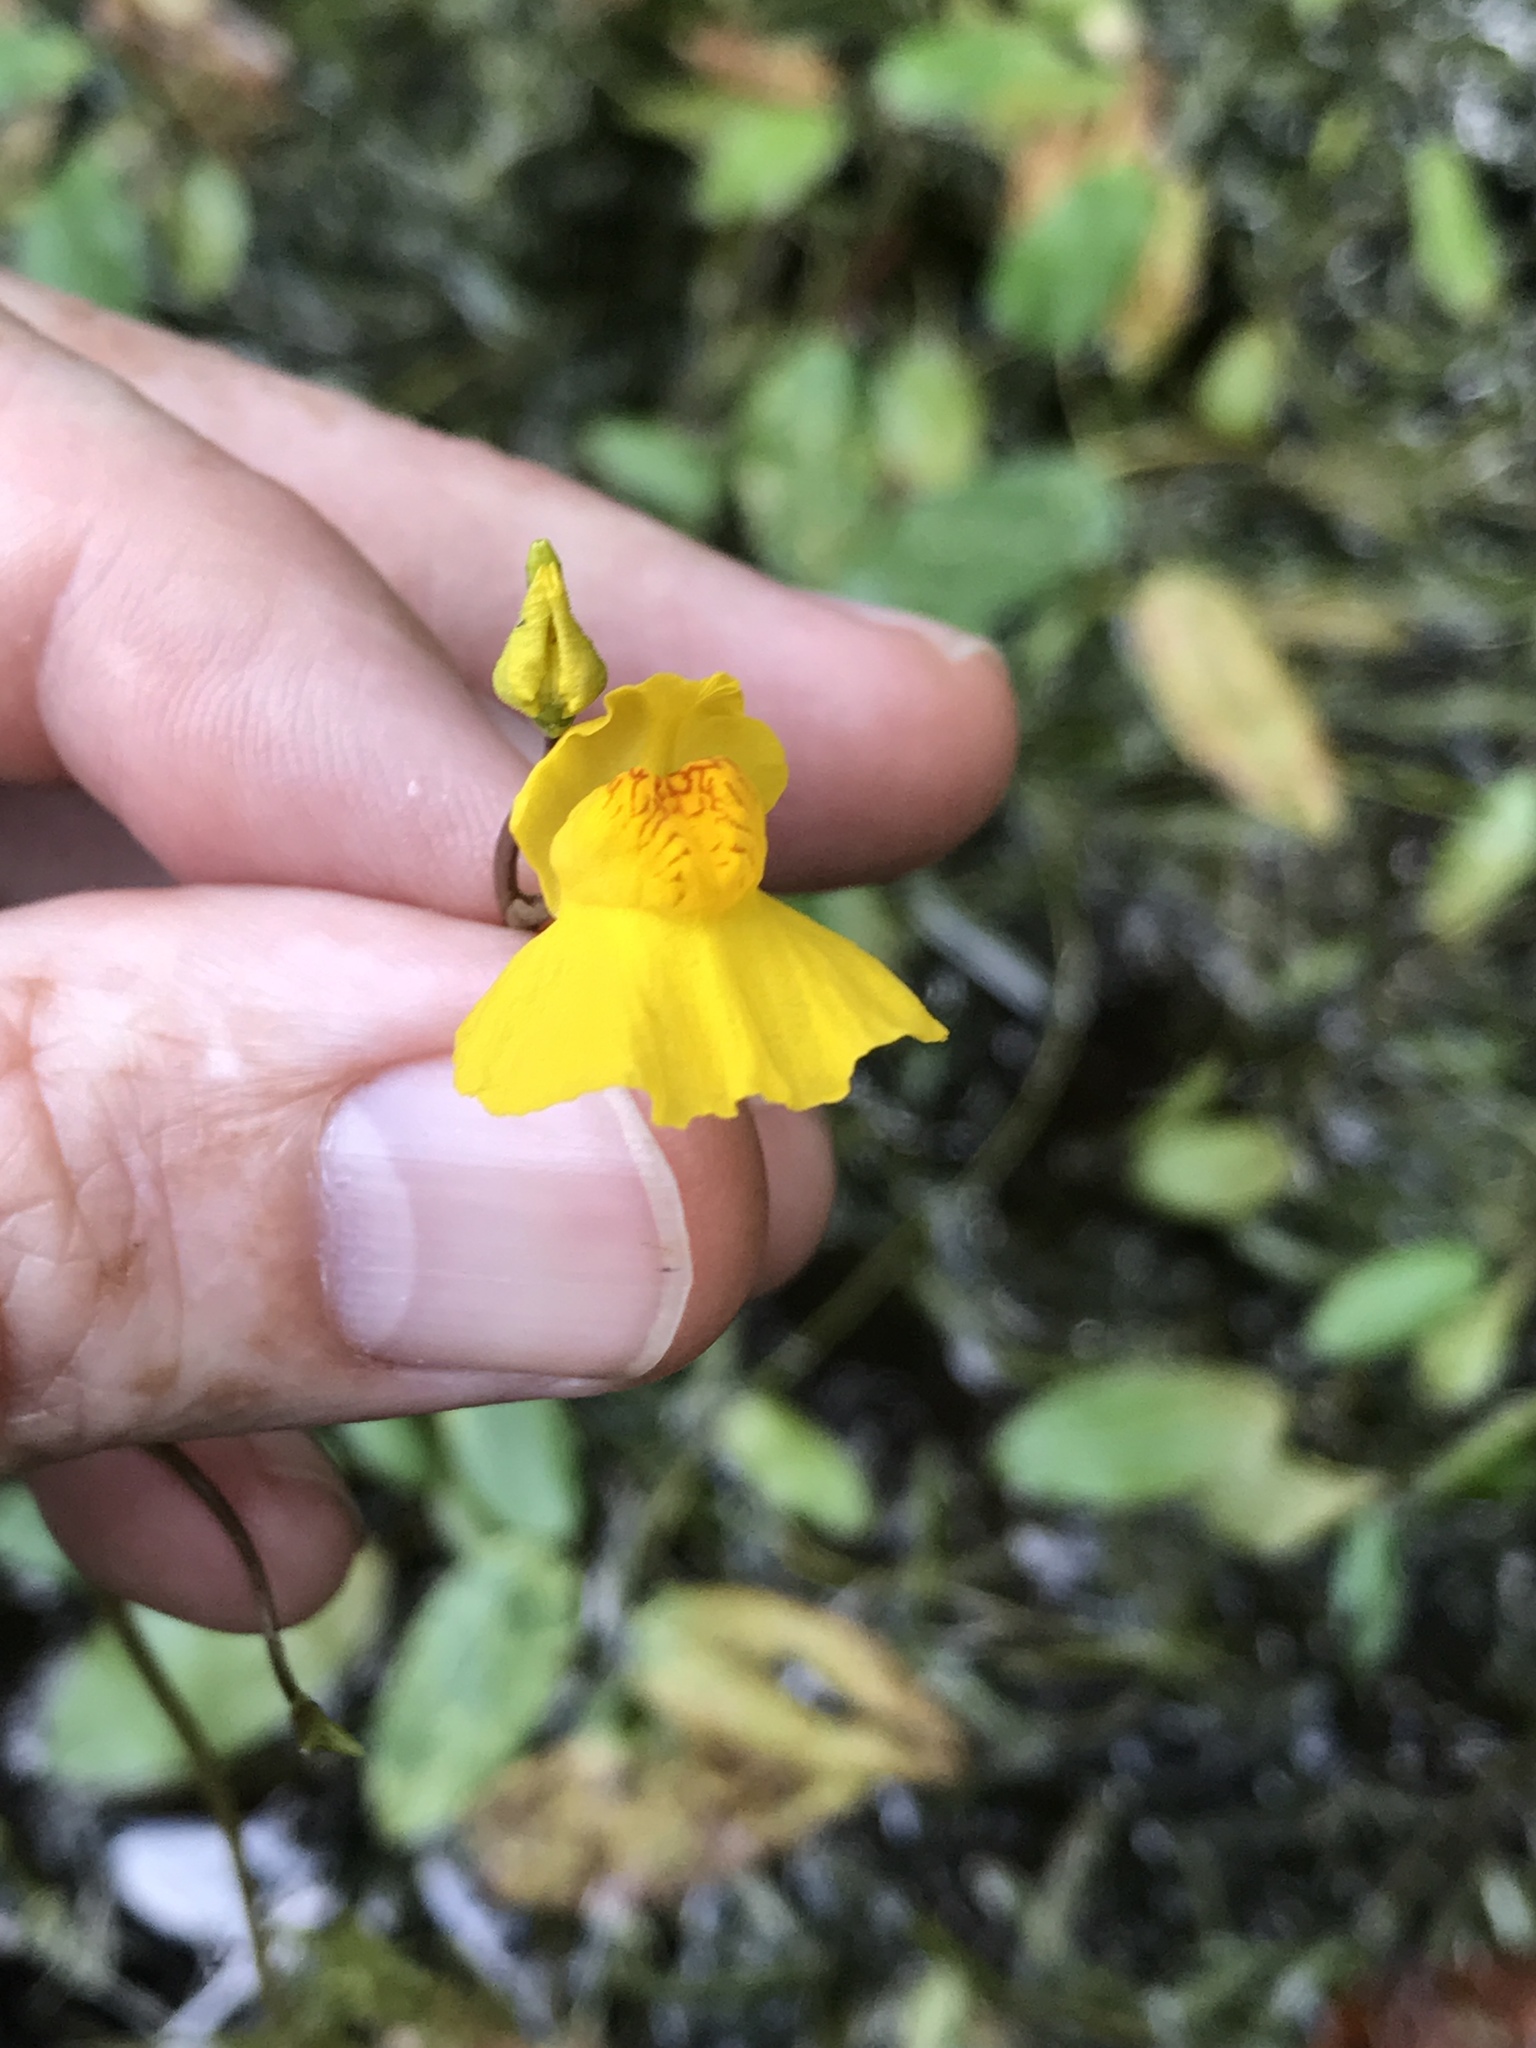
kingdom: Plantae
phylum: Tracheophyta
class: Magnoliopsida
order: Lamiales
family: Lentibulariaceae
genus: Utricularia
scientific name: Utricularia macrorhiza
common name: Common bladderwort
